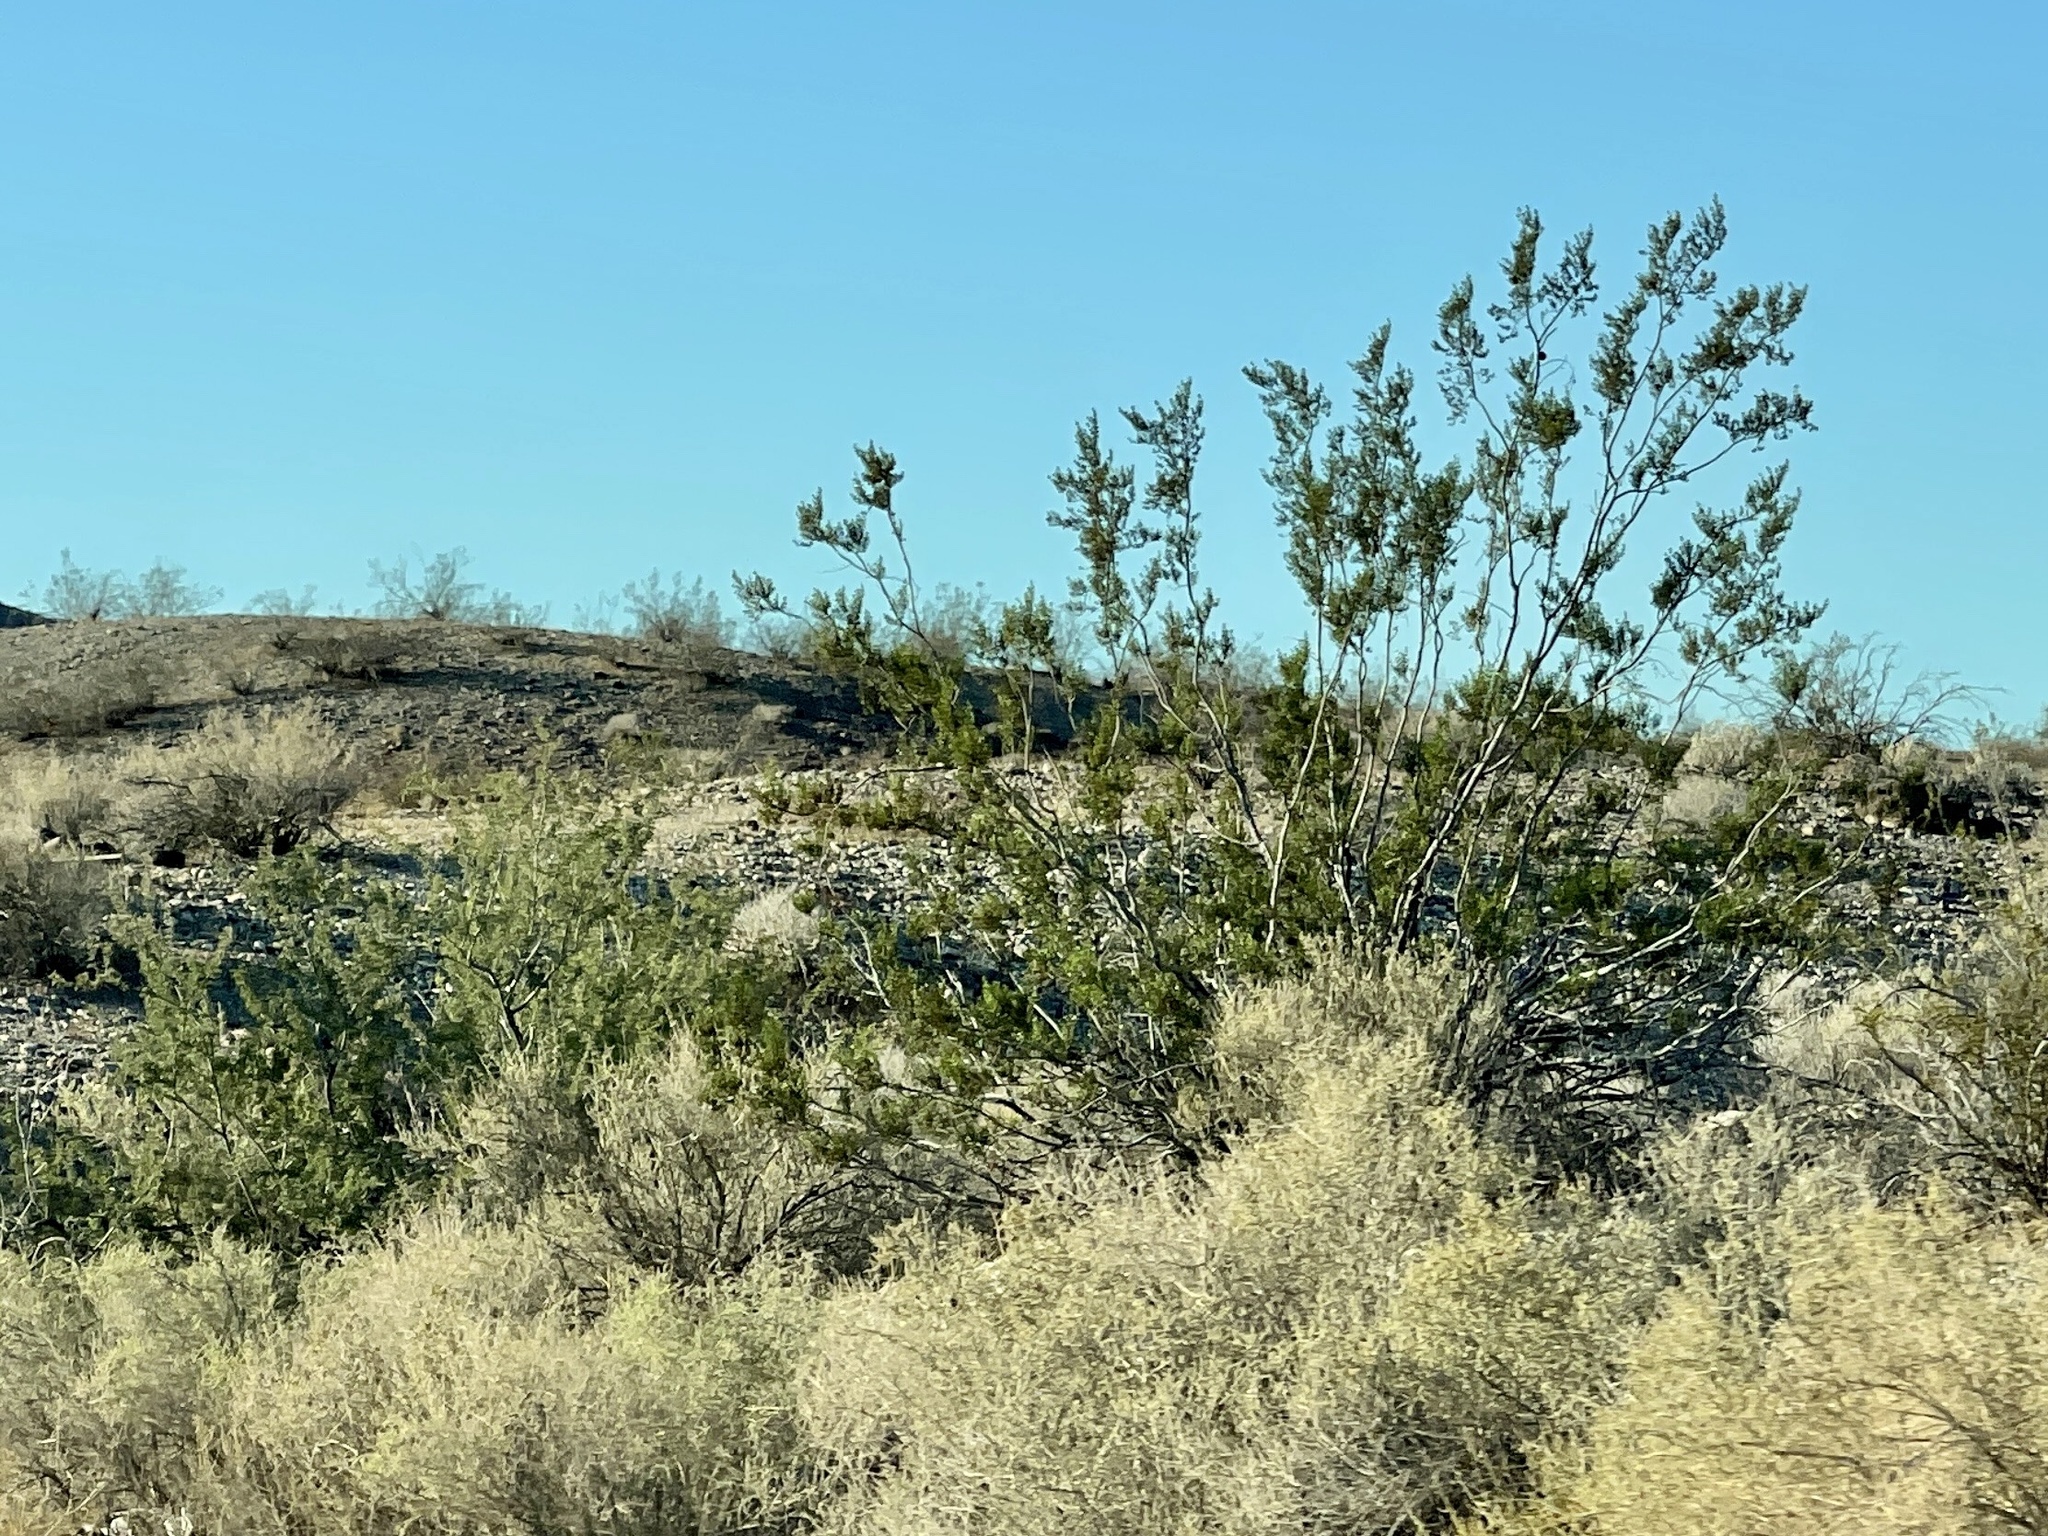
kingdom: Plantae
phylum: Tracheophyta
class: Magnoliopsida
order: Zygophyllales
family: Zygophyllaceae
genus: Larrea
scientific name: Larrea tridentata
